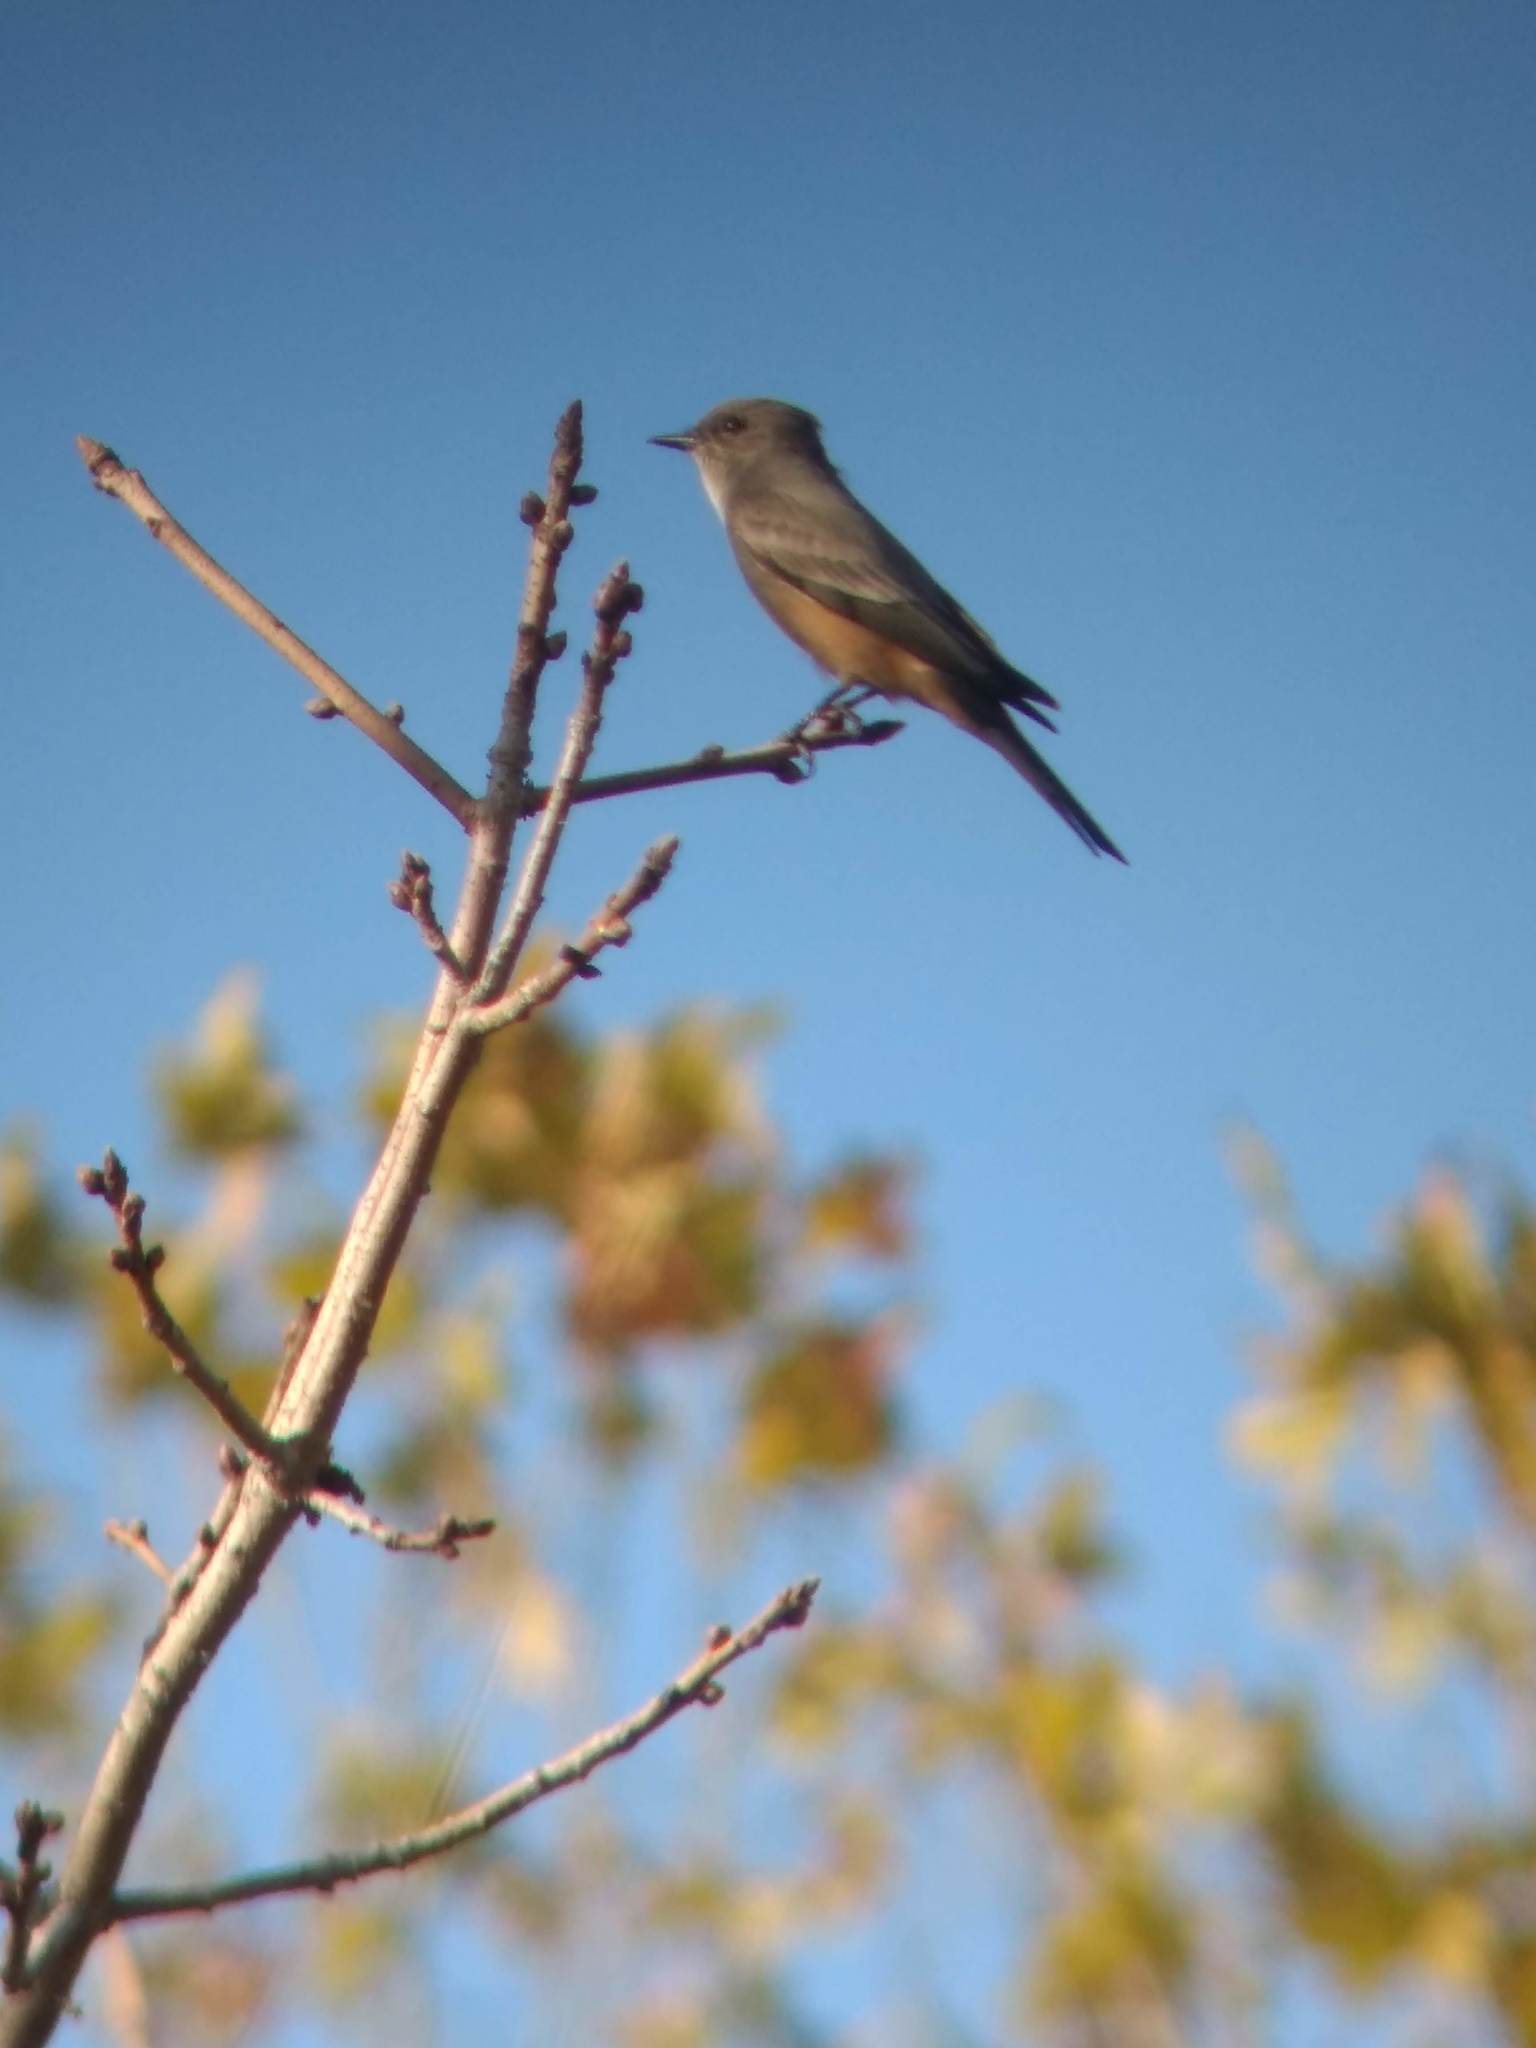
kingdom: Animalia
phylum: Chordata
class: Aves
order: Passeriformes
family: Tyrannidae
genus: Sayornis
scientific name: Sayornis saya
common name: Say's phoebe
